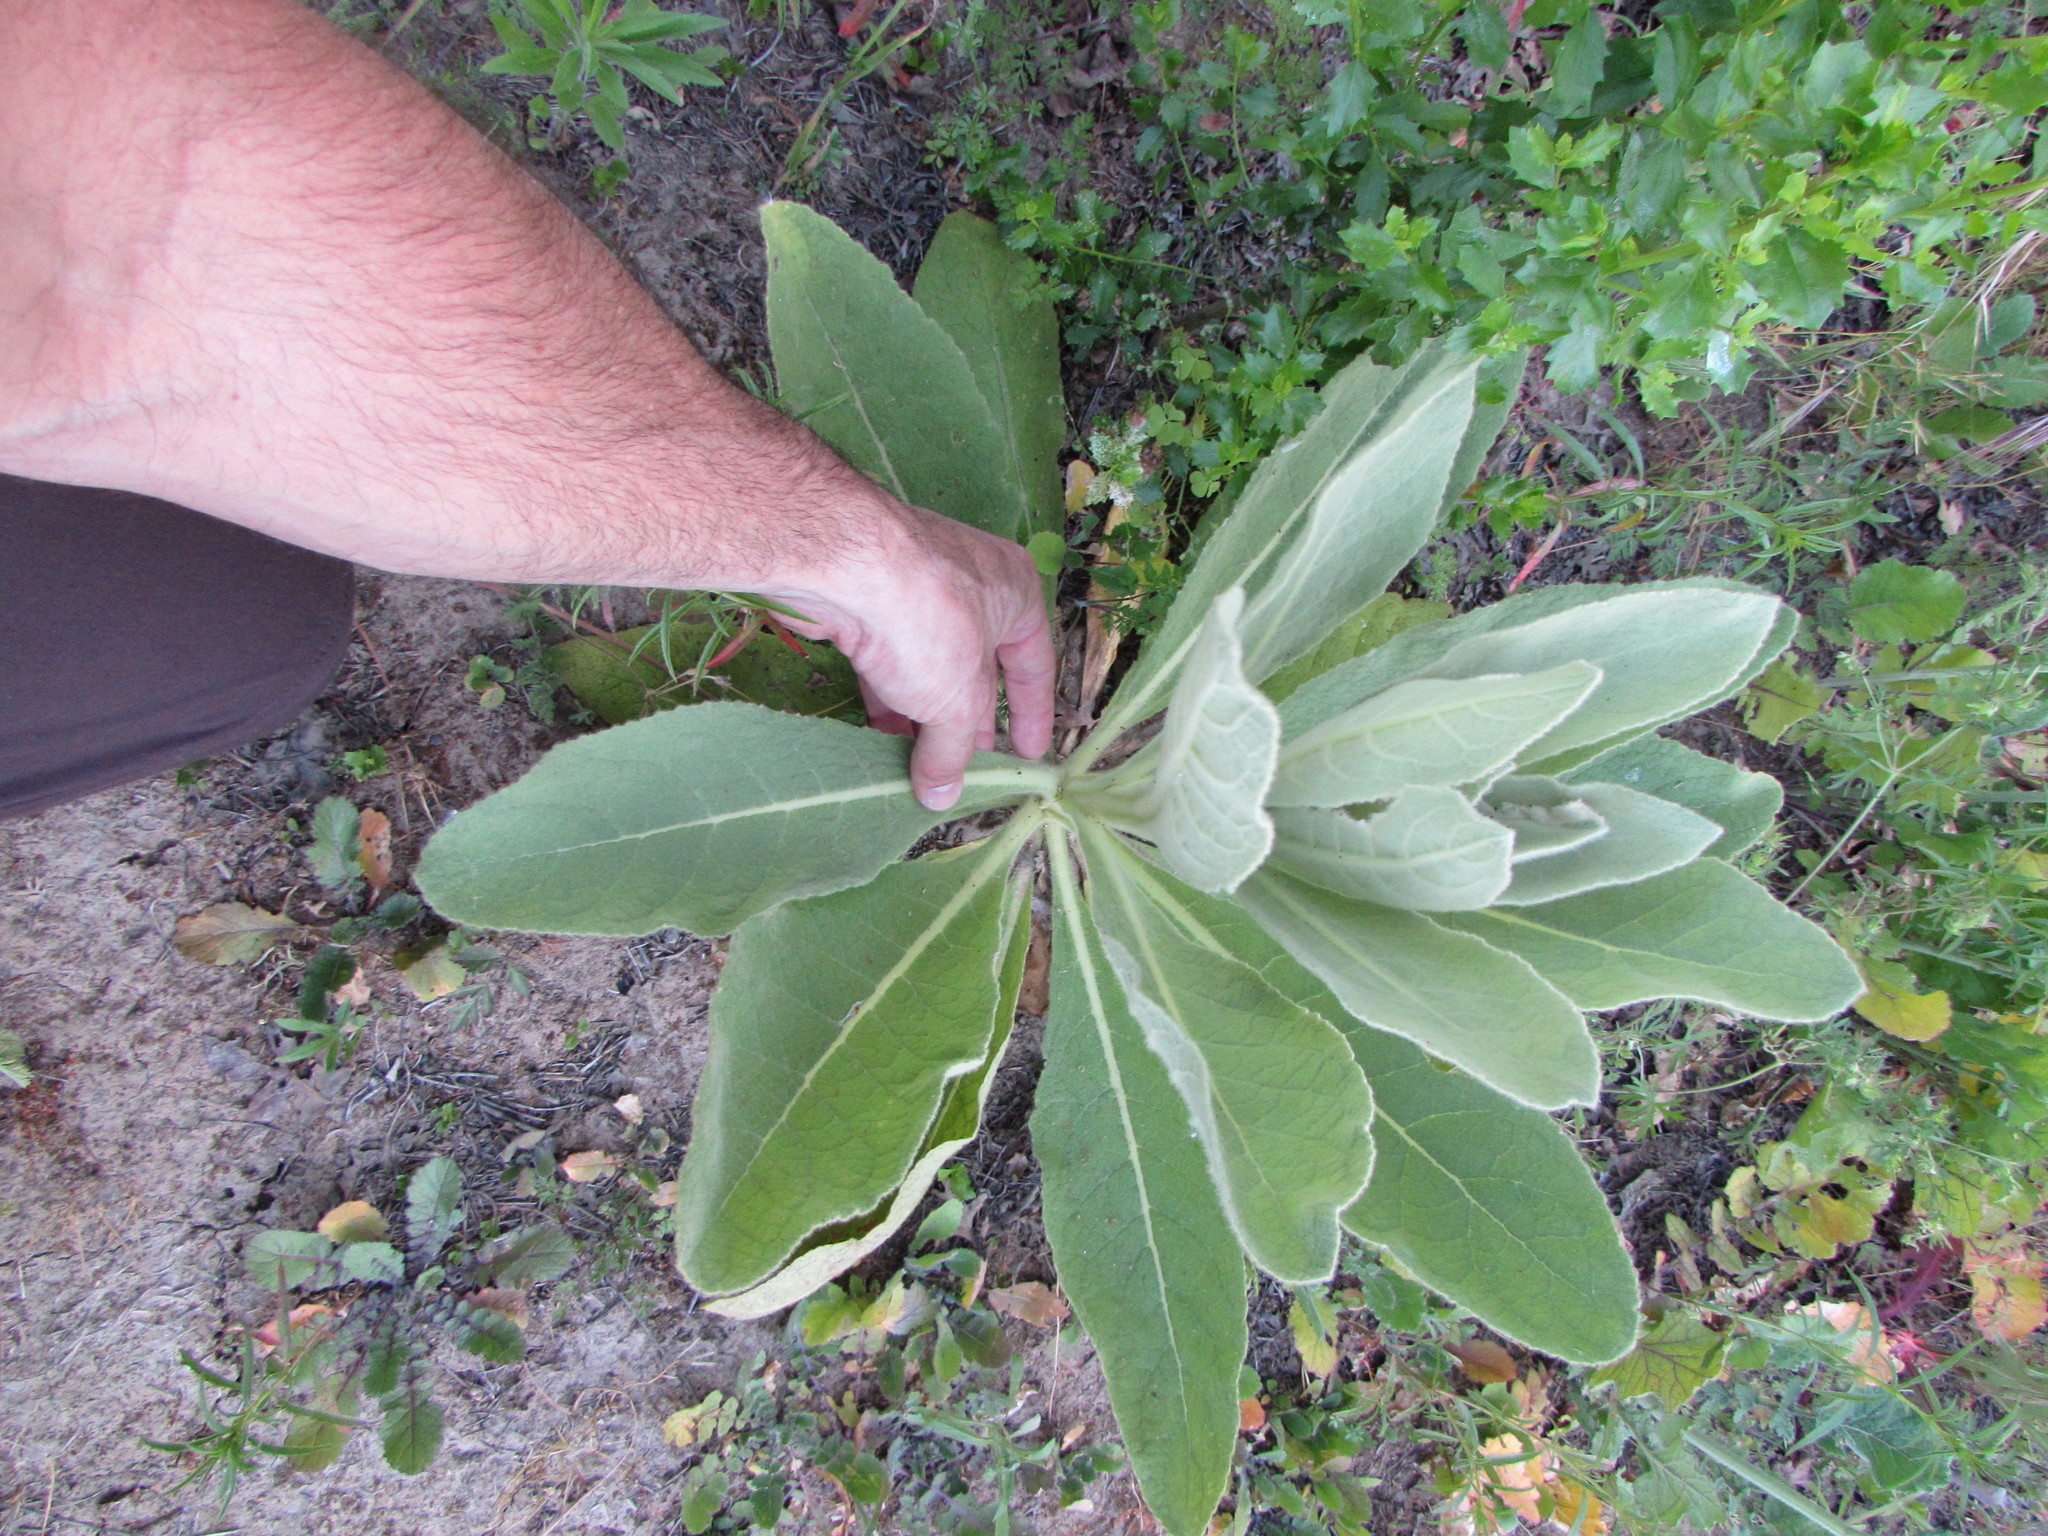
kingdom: Plantae
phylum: Tracheophyta
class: Magnoliopsida
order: Lamiales
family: Scrophulariaceae
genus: Verbascum
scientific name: Verbascum thapsus
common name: Common mullein
